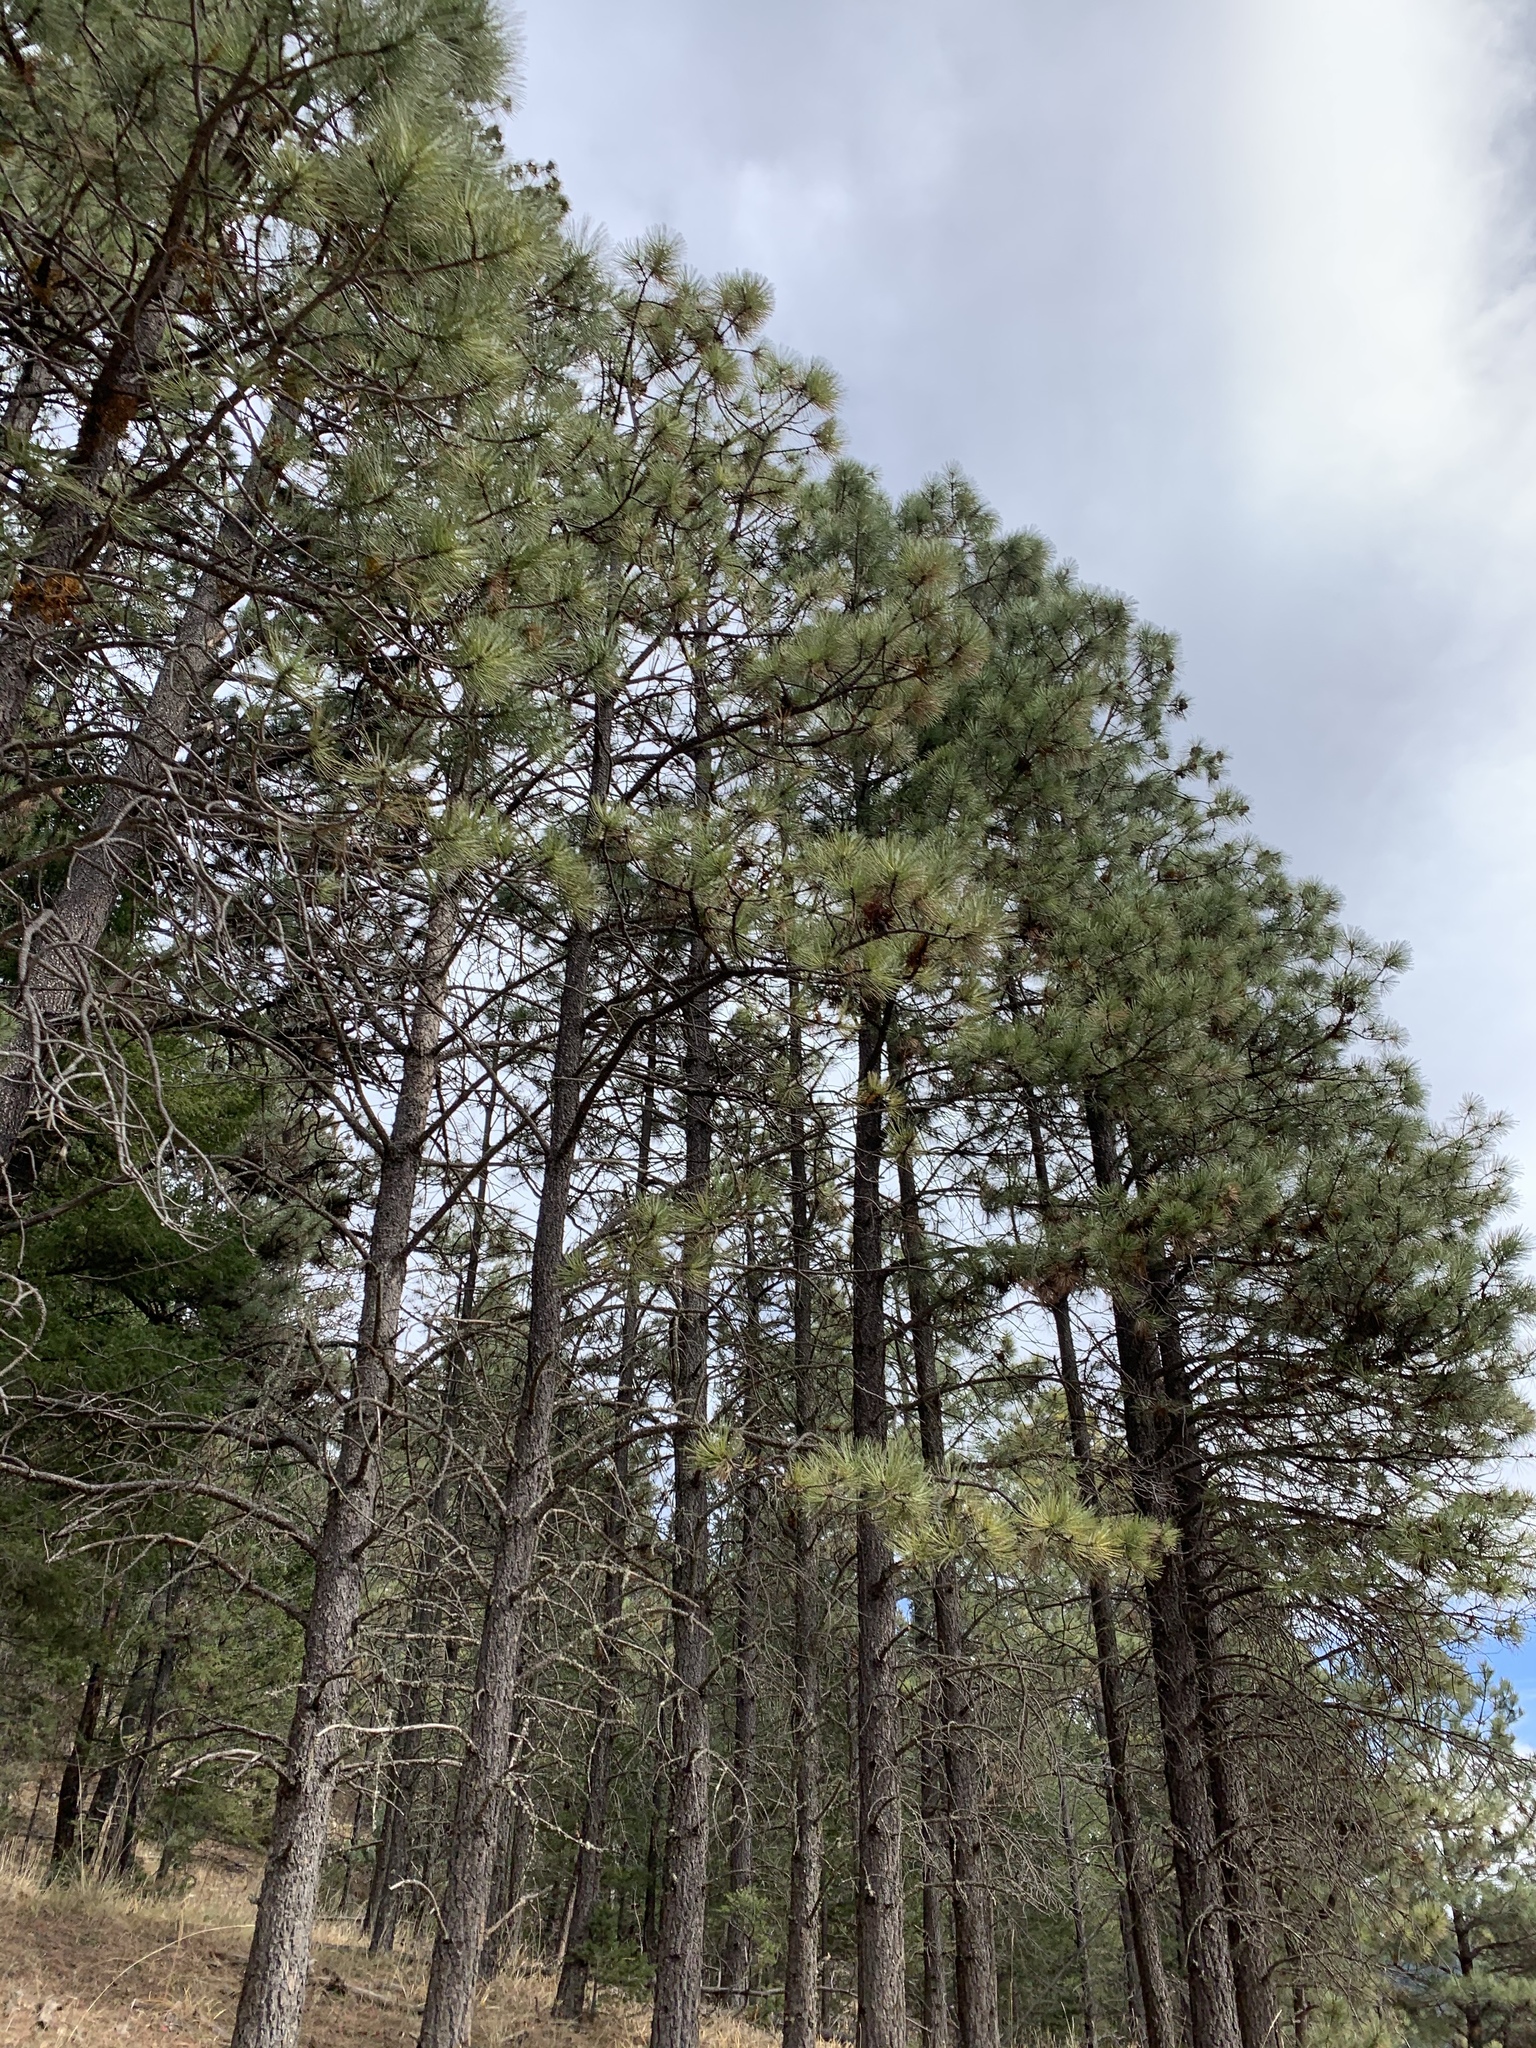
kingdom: Plantae
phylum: Tracheophyta
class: Pinopsida
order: Pinales
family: Pinaceae
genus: Pinus
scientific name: Pinus ponderosa
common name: Western yellow-pine
